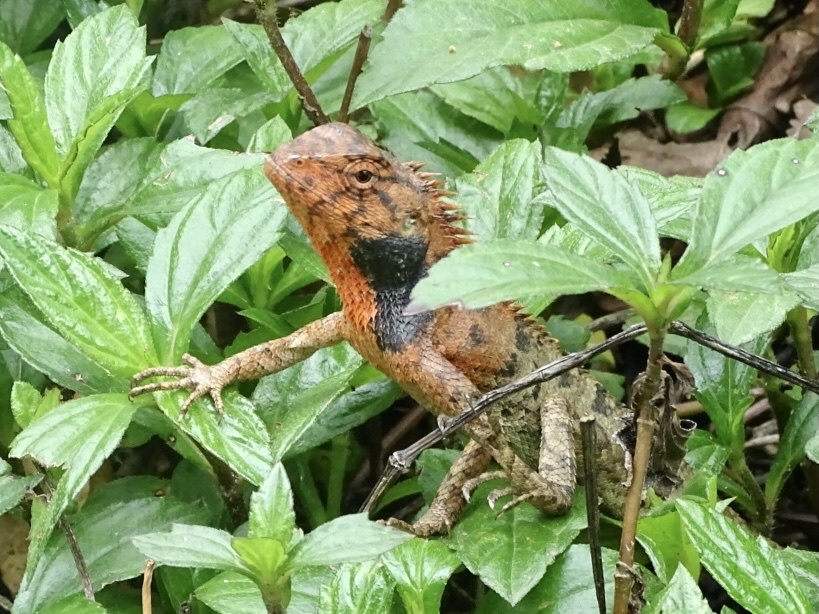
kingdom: Animalia
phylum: Chordata
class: Squamata
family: Agamidae
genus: Calotes
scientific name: Calotes versicolor
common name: Oriental garden lizard
